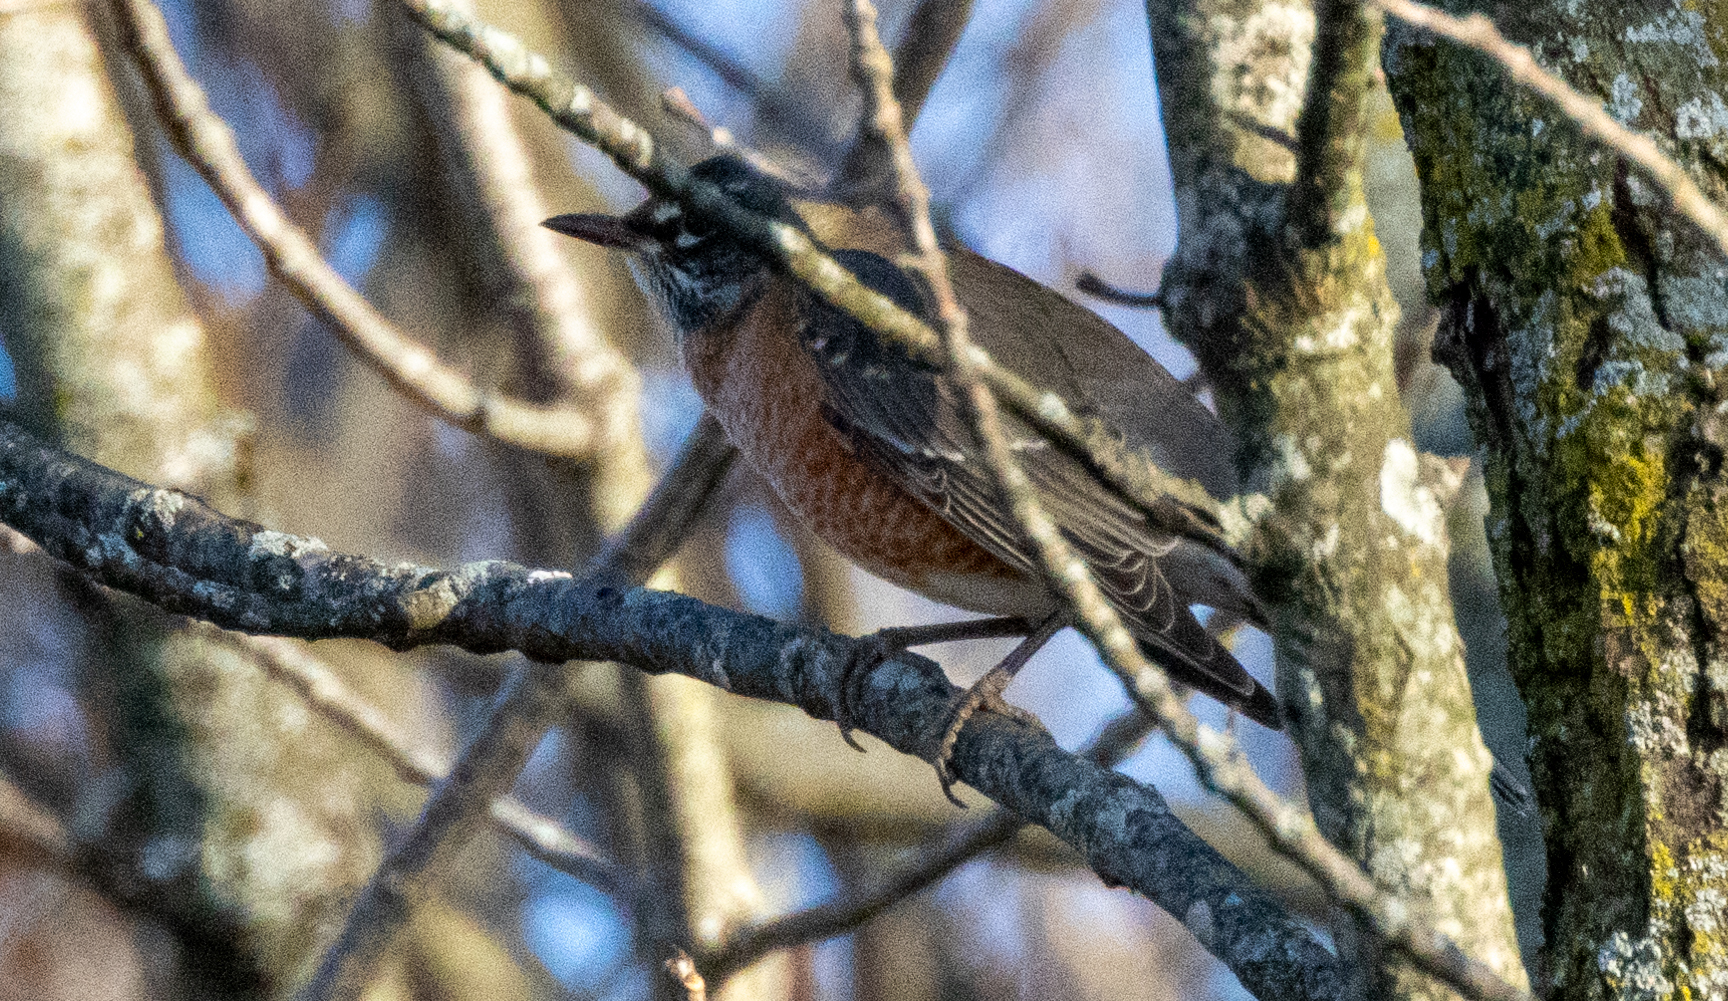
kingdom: Animalia
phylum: Chordata
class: Aves
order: Passeriformes
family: Turdidae
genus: Turdus
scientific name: Turdus migratorius
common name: American robin
